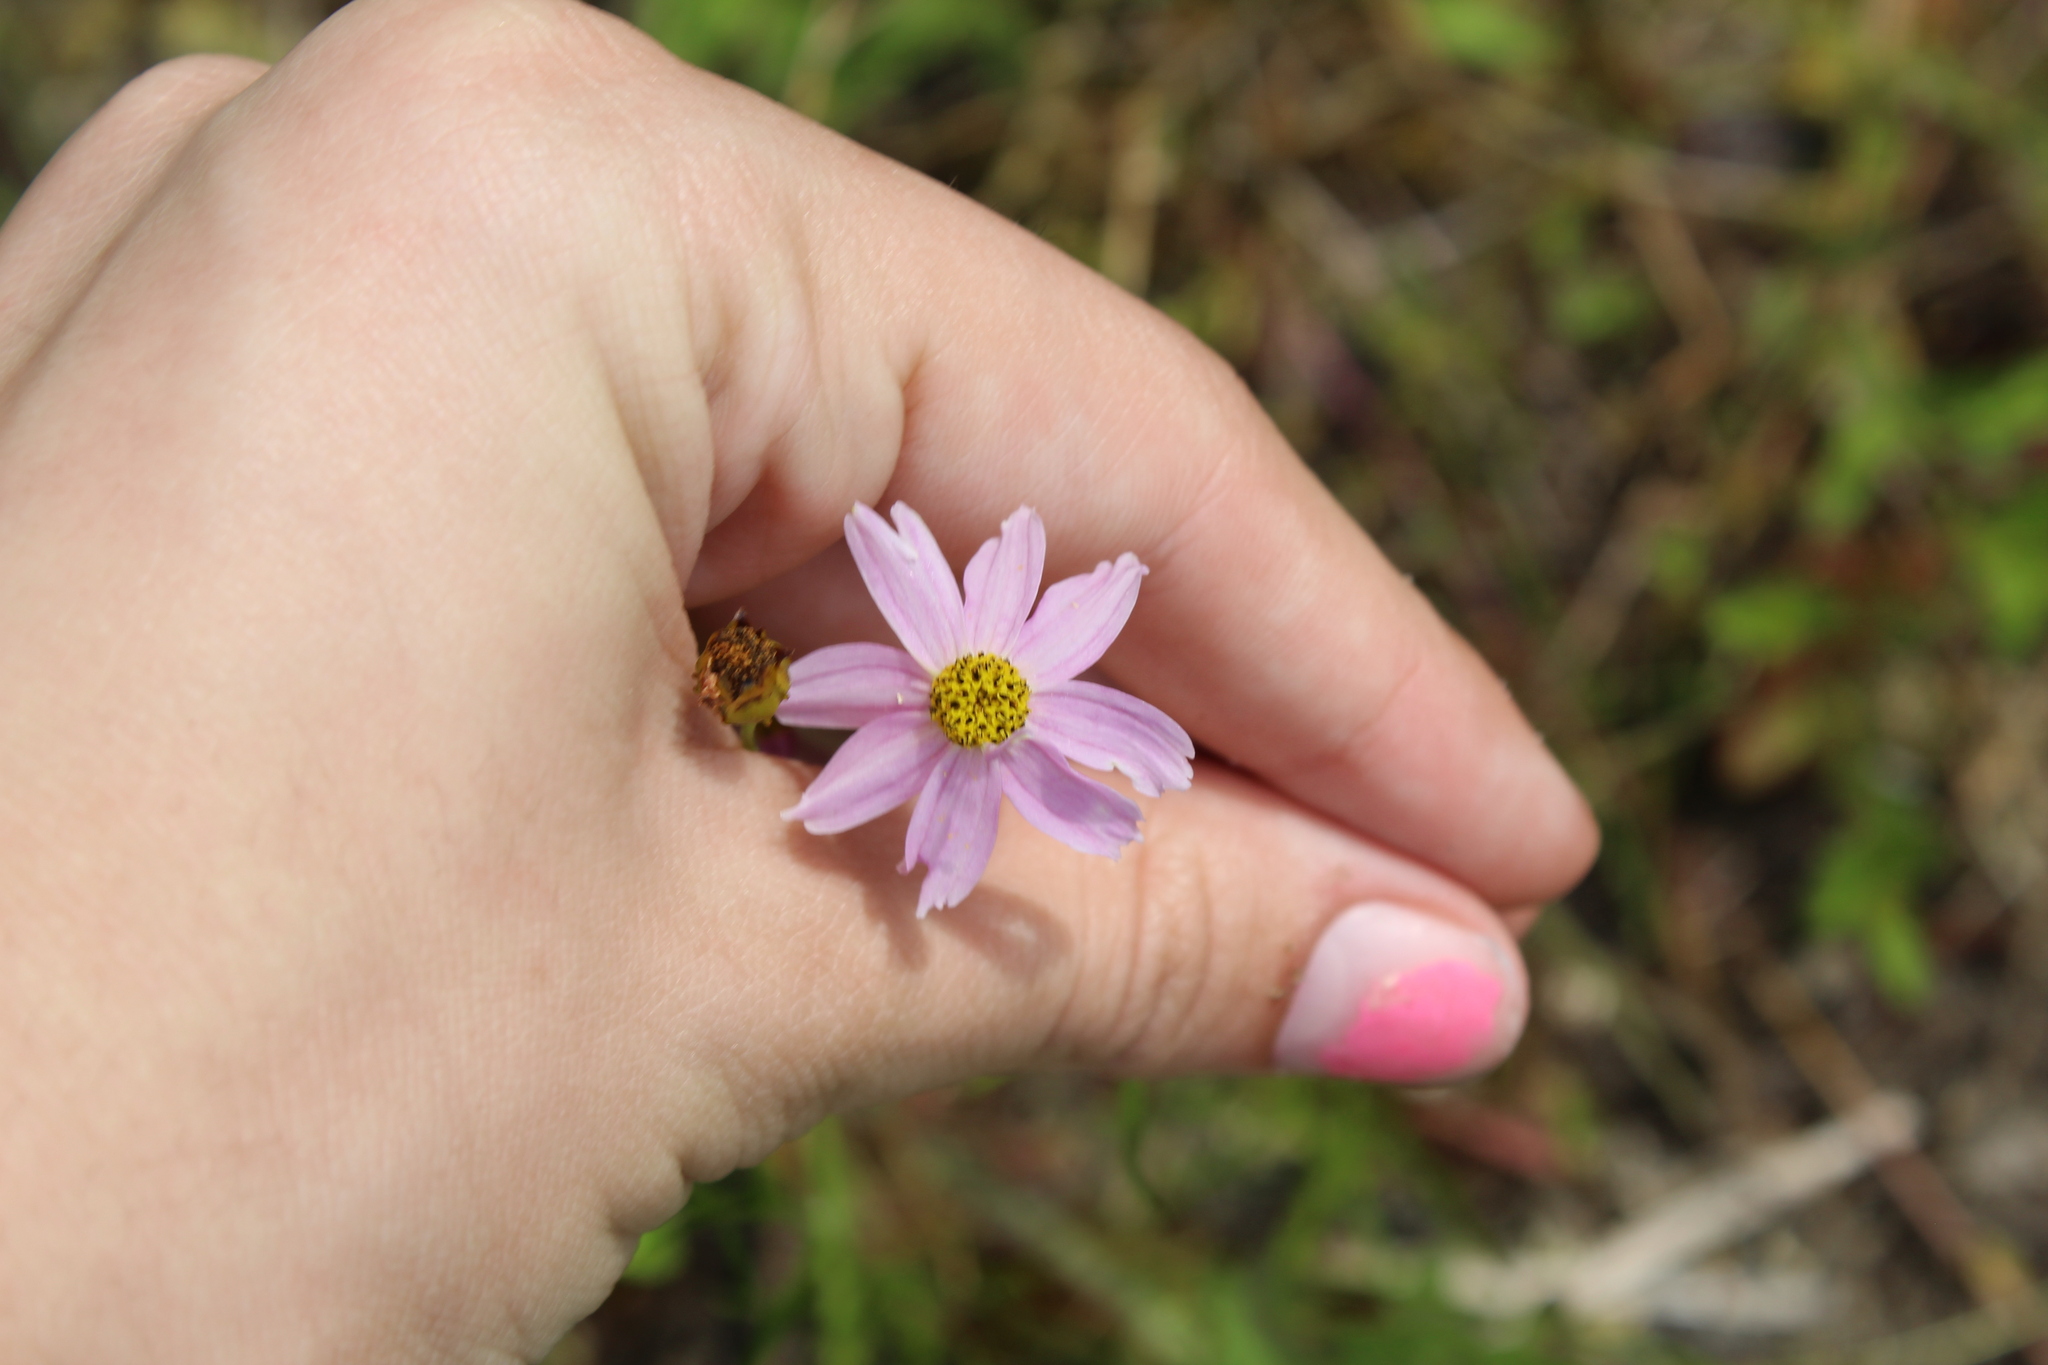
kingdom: Plantae
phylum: Tracheophyta
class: Magnoliopsida
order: Asterales
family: Asteraceae
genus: Coreopsis
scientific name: Coreopsis rosea
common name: Pink coreopsis
